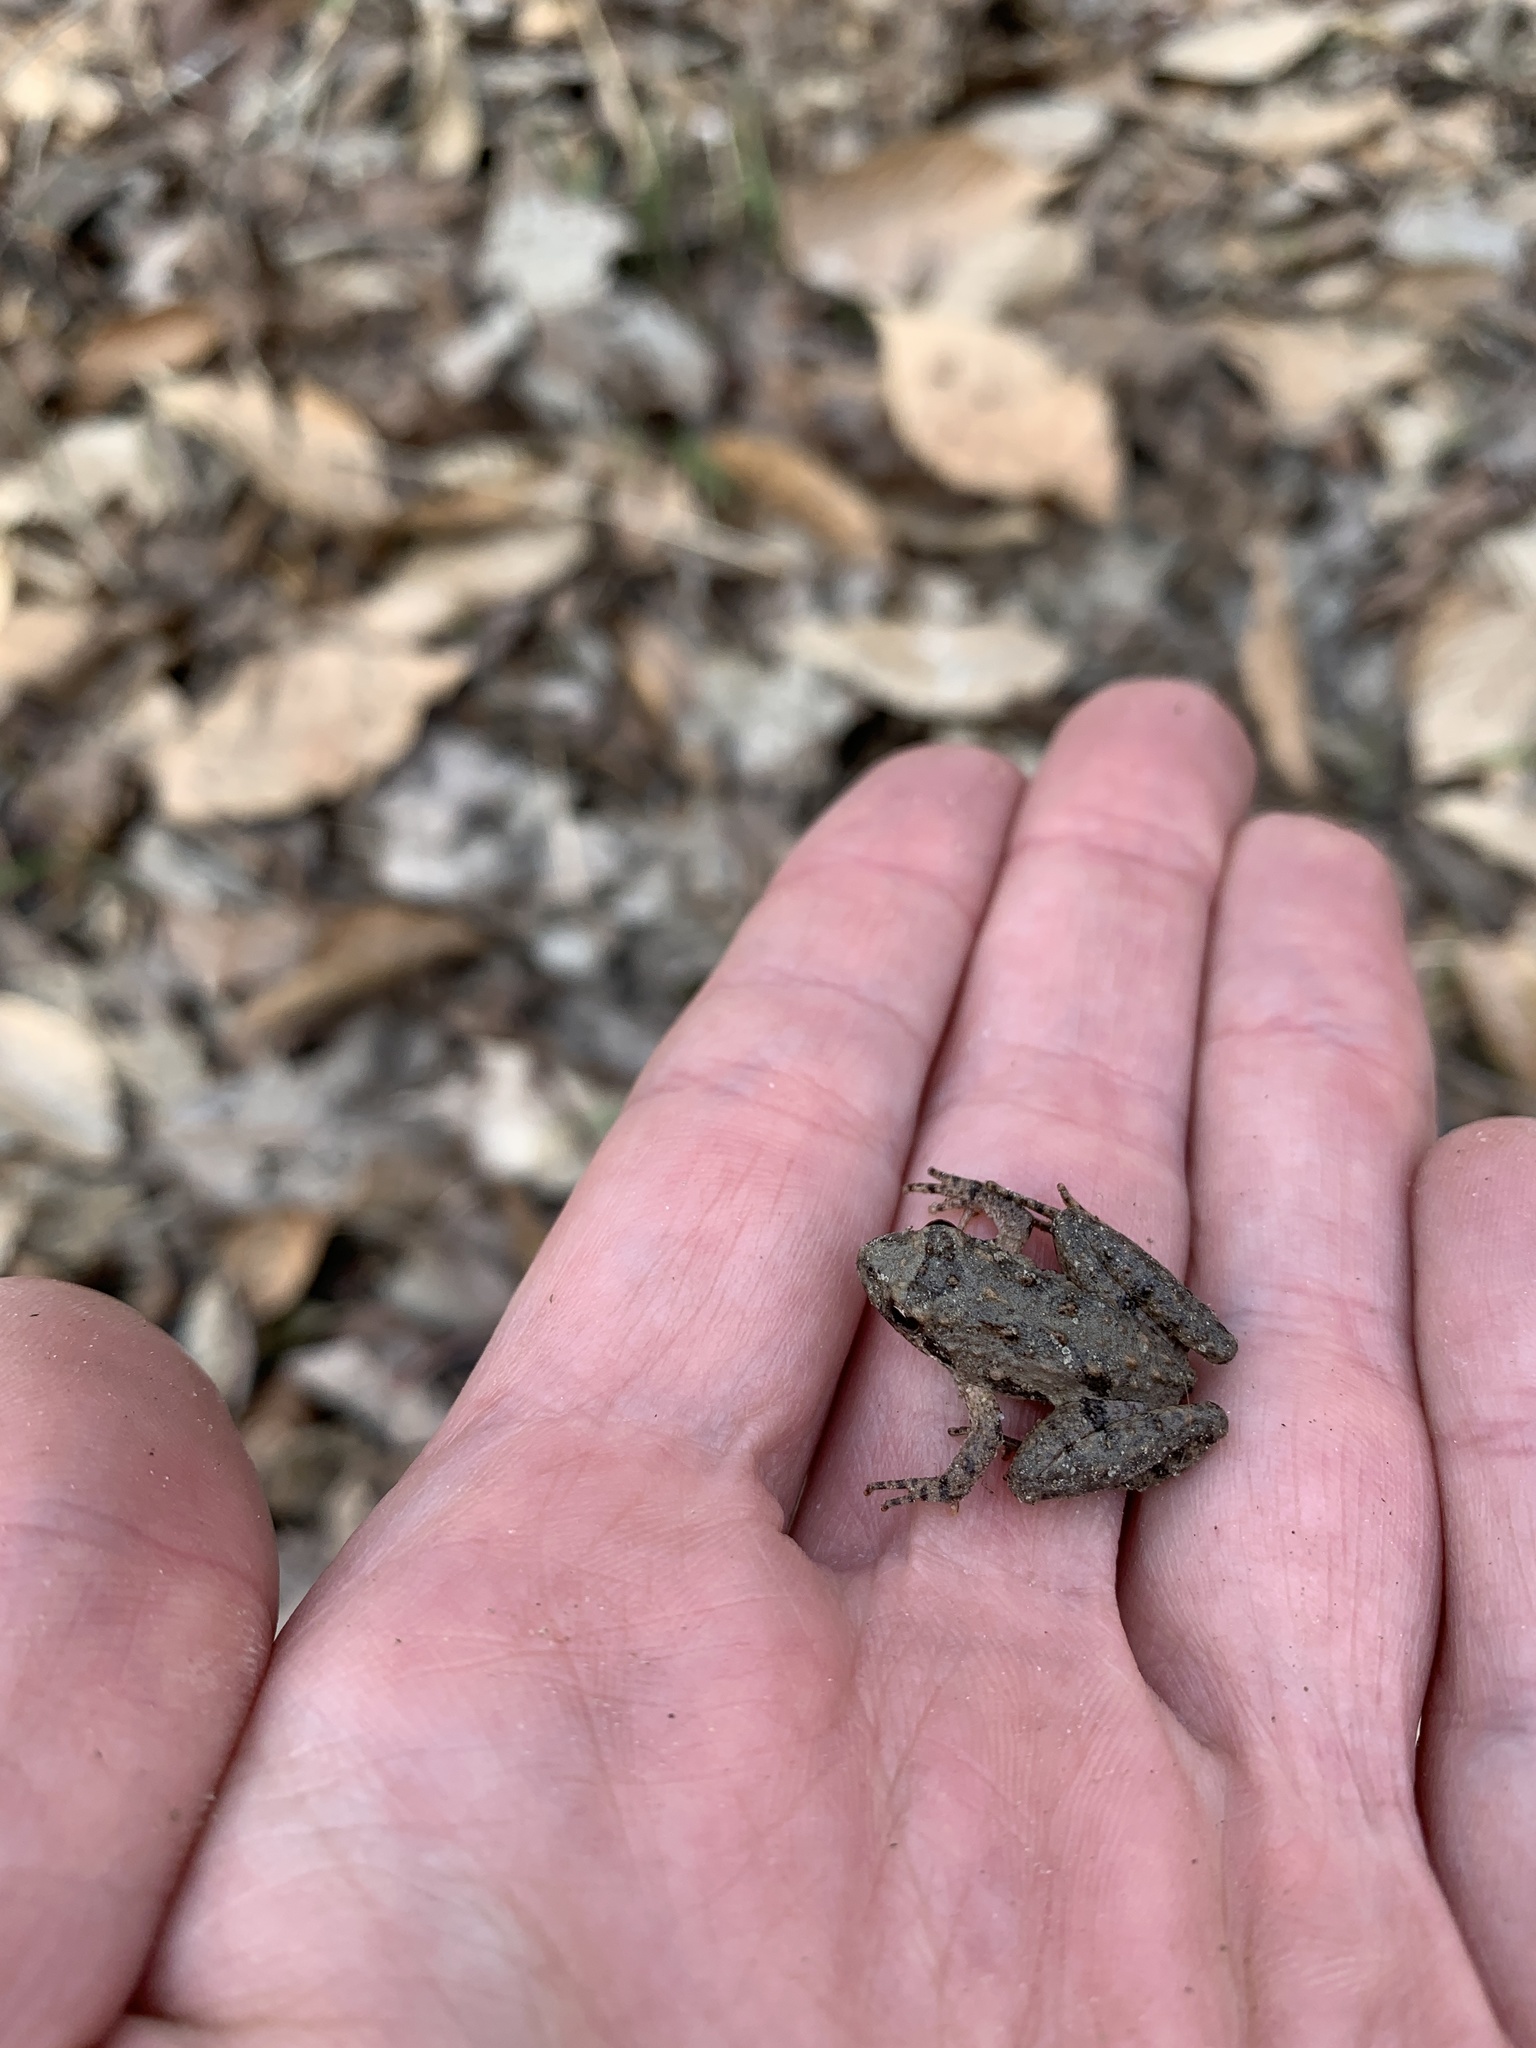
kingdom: Animalia
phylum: Chordata
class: Amphibia
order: Anura
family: Hylidae
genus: Acris
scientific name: Acris crepitans
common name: Northern cricket frog
